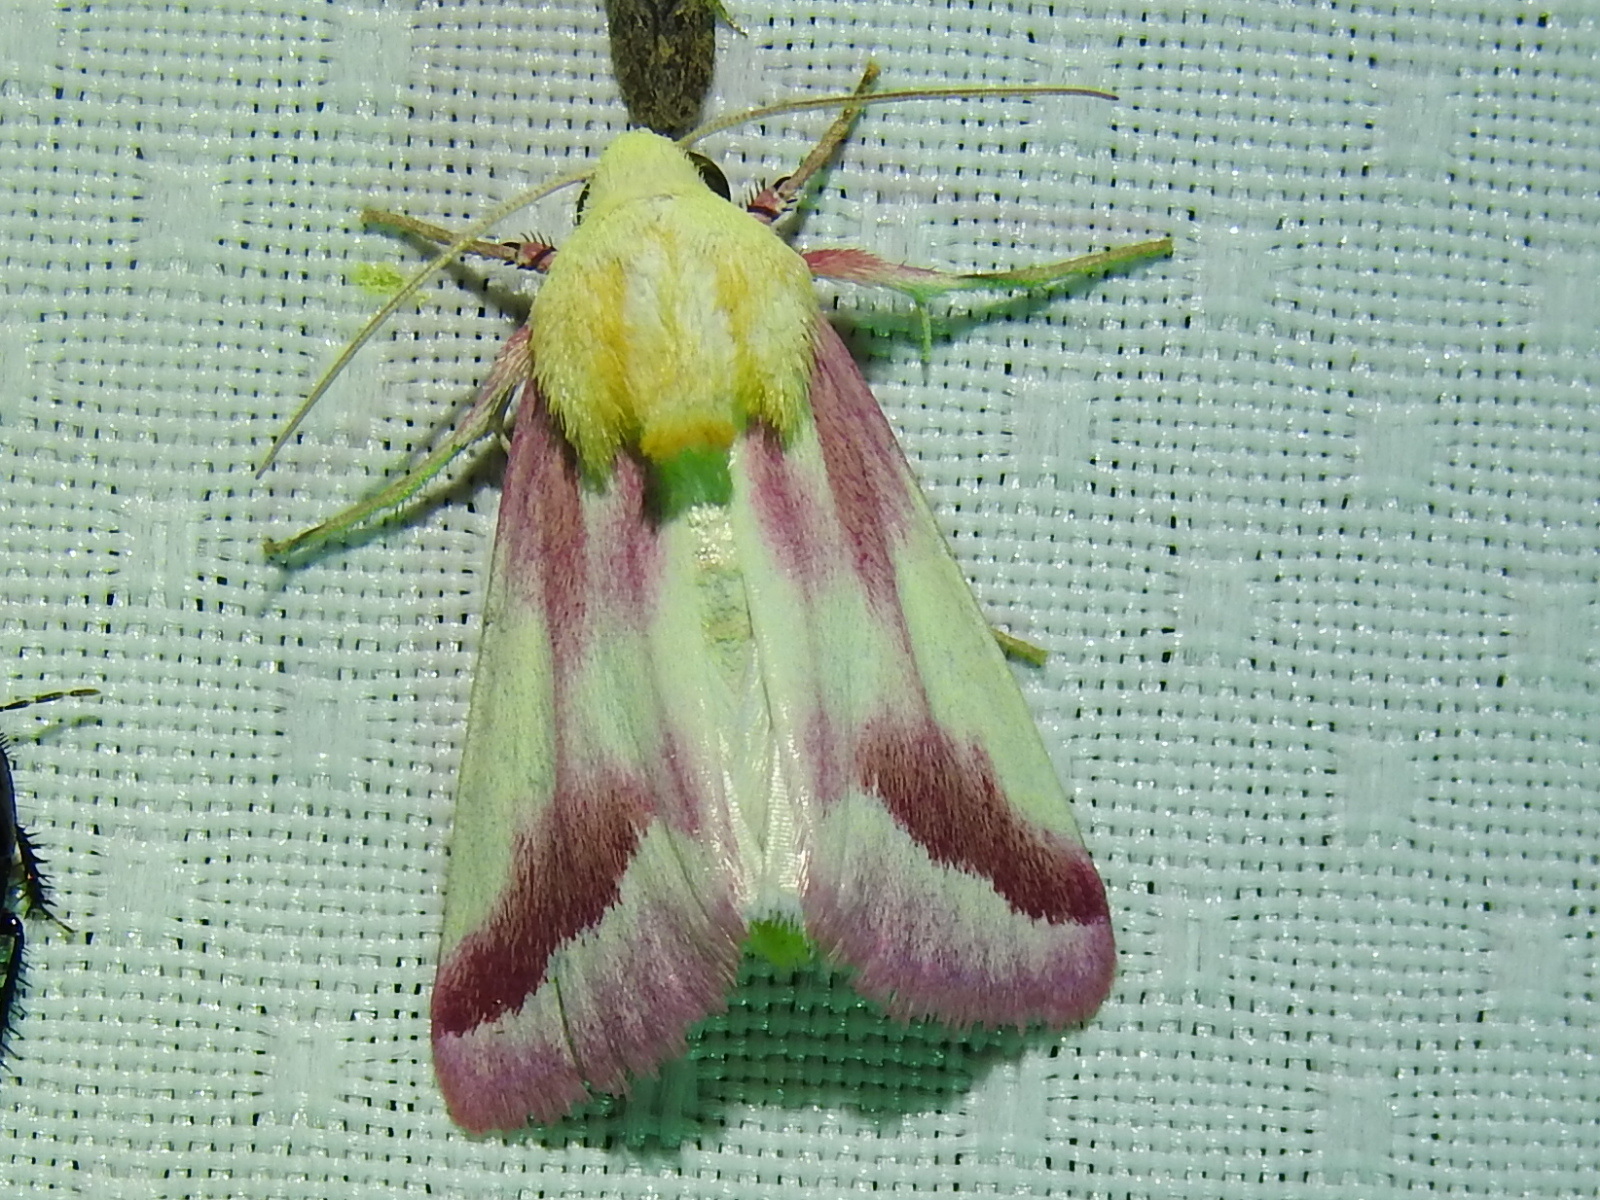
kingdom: Animalia
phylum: Arthropoda
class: Insecta
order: Lepidoptera
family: Noctuidae
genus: Schinia
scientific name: Schinia gaurae
